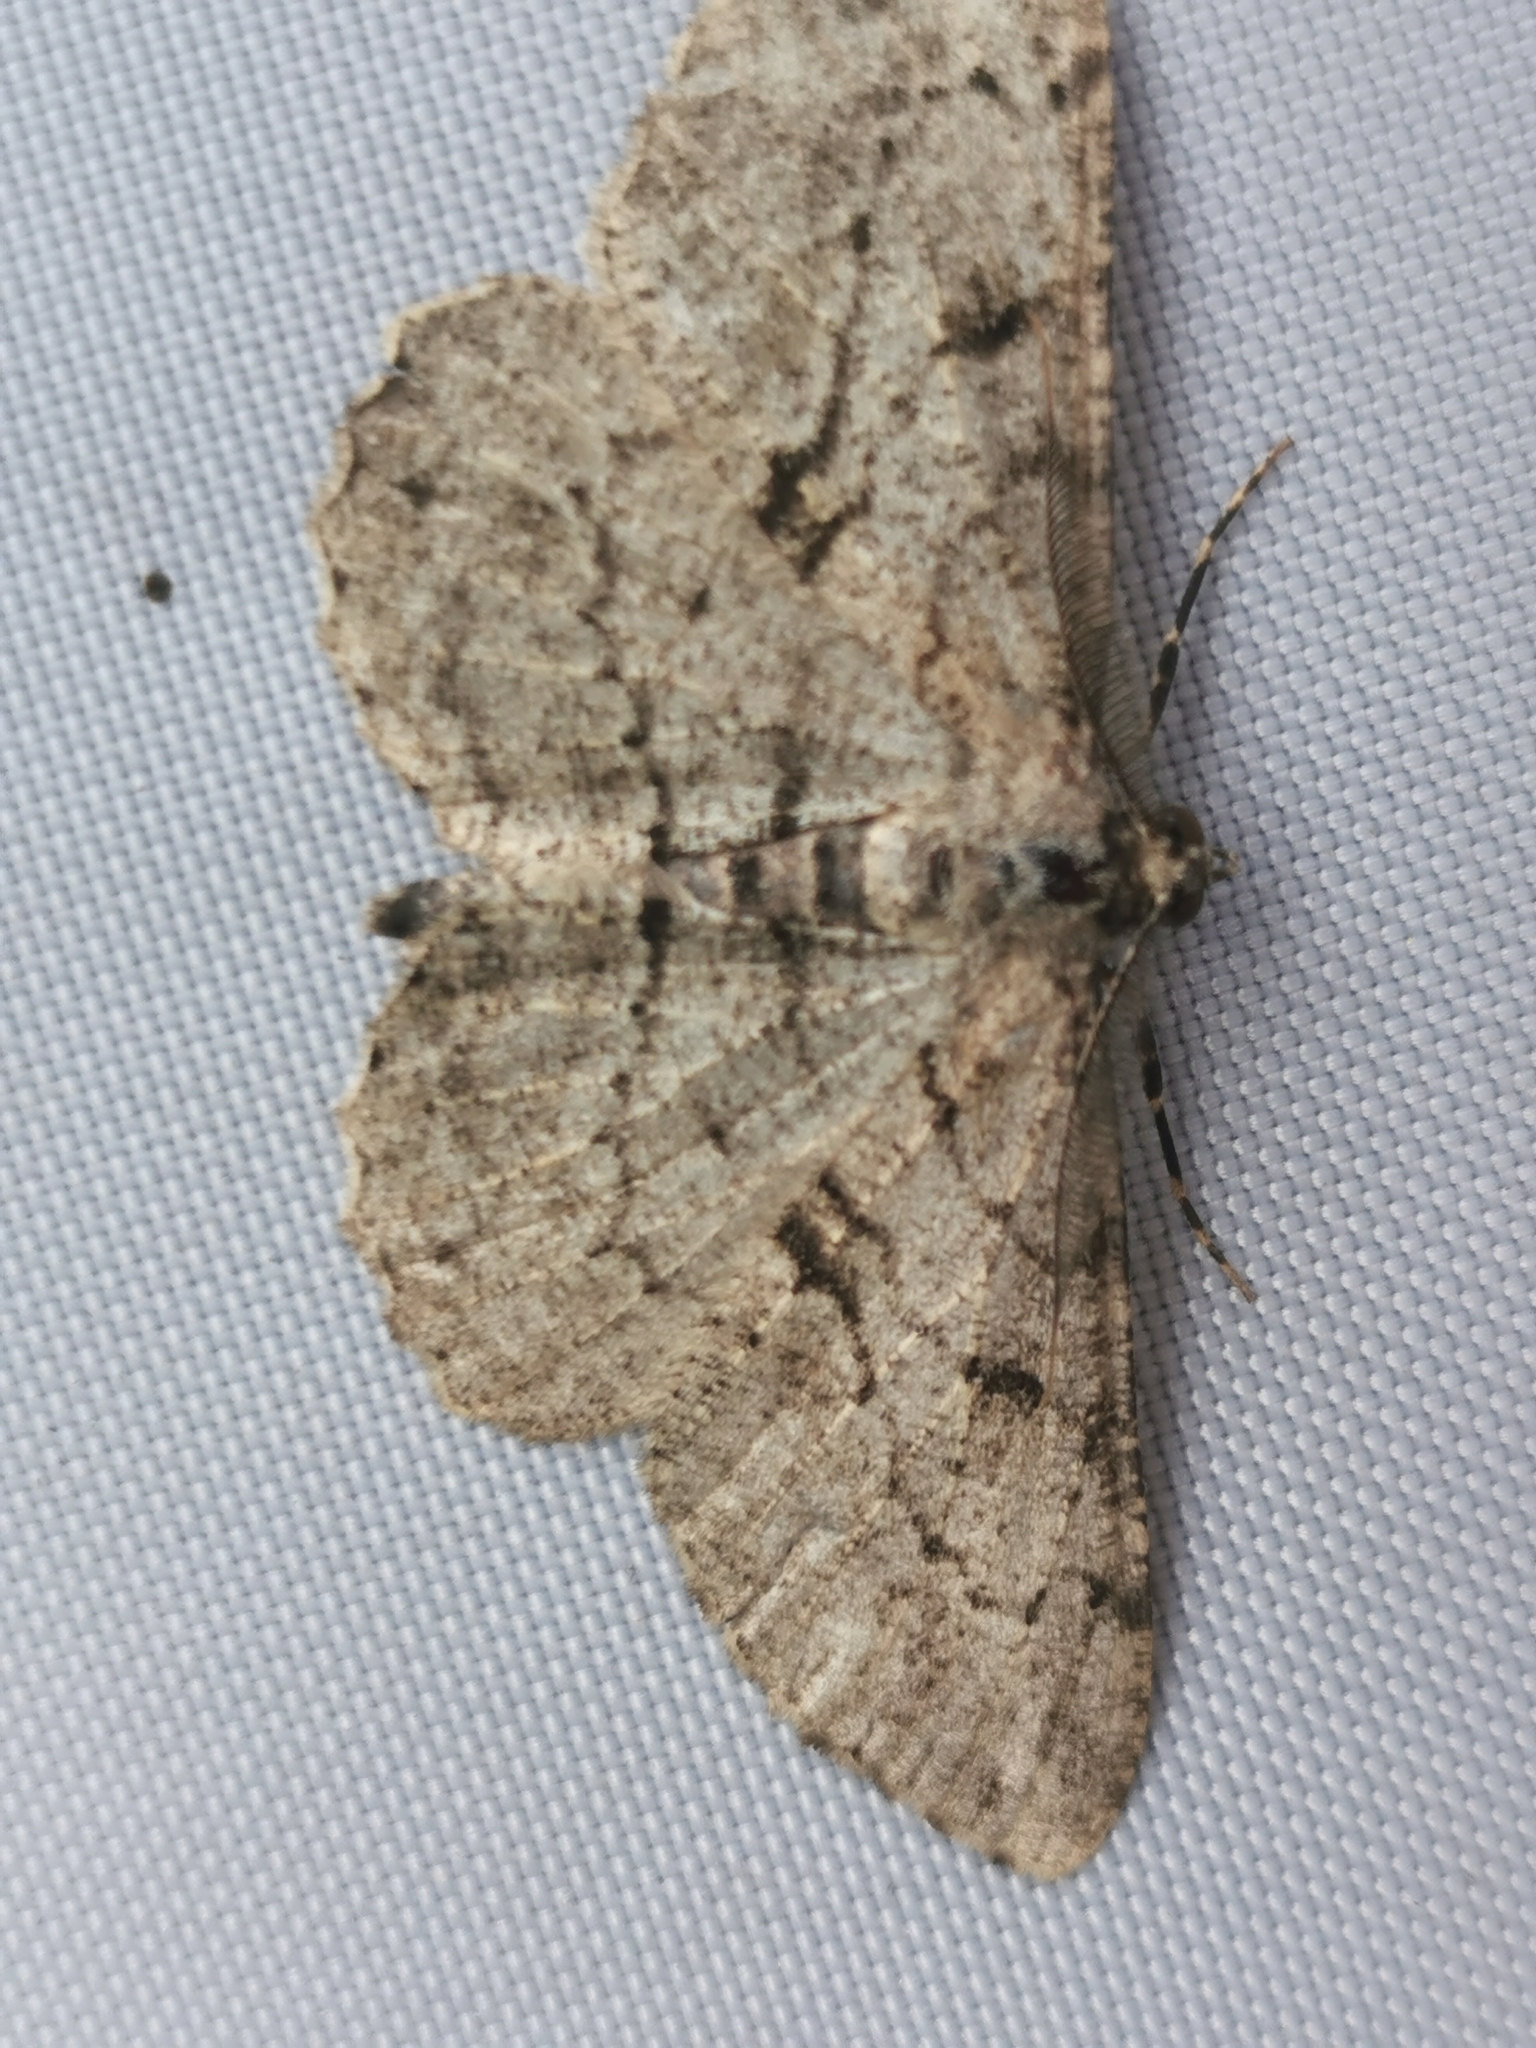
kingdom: Animalia
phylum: Arthropoda
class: Insecta
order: Lepidoptera
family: Geometridae
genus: Hypomecis
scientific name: Hypomecis roboraria
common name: Great oak beauty
